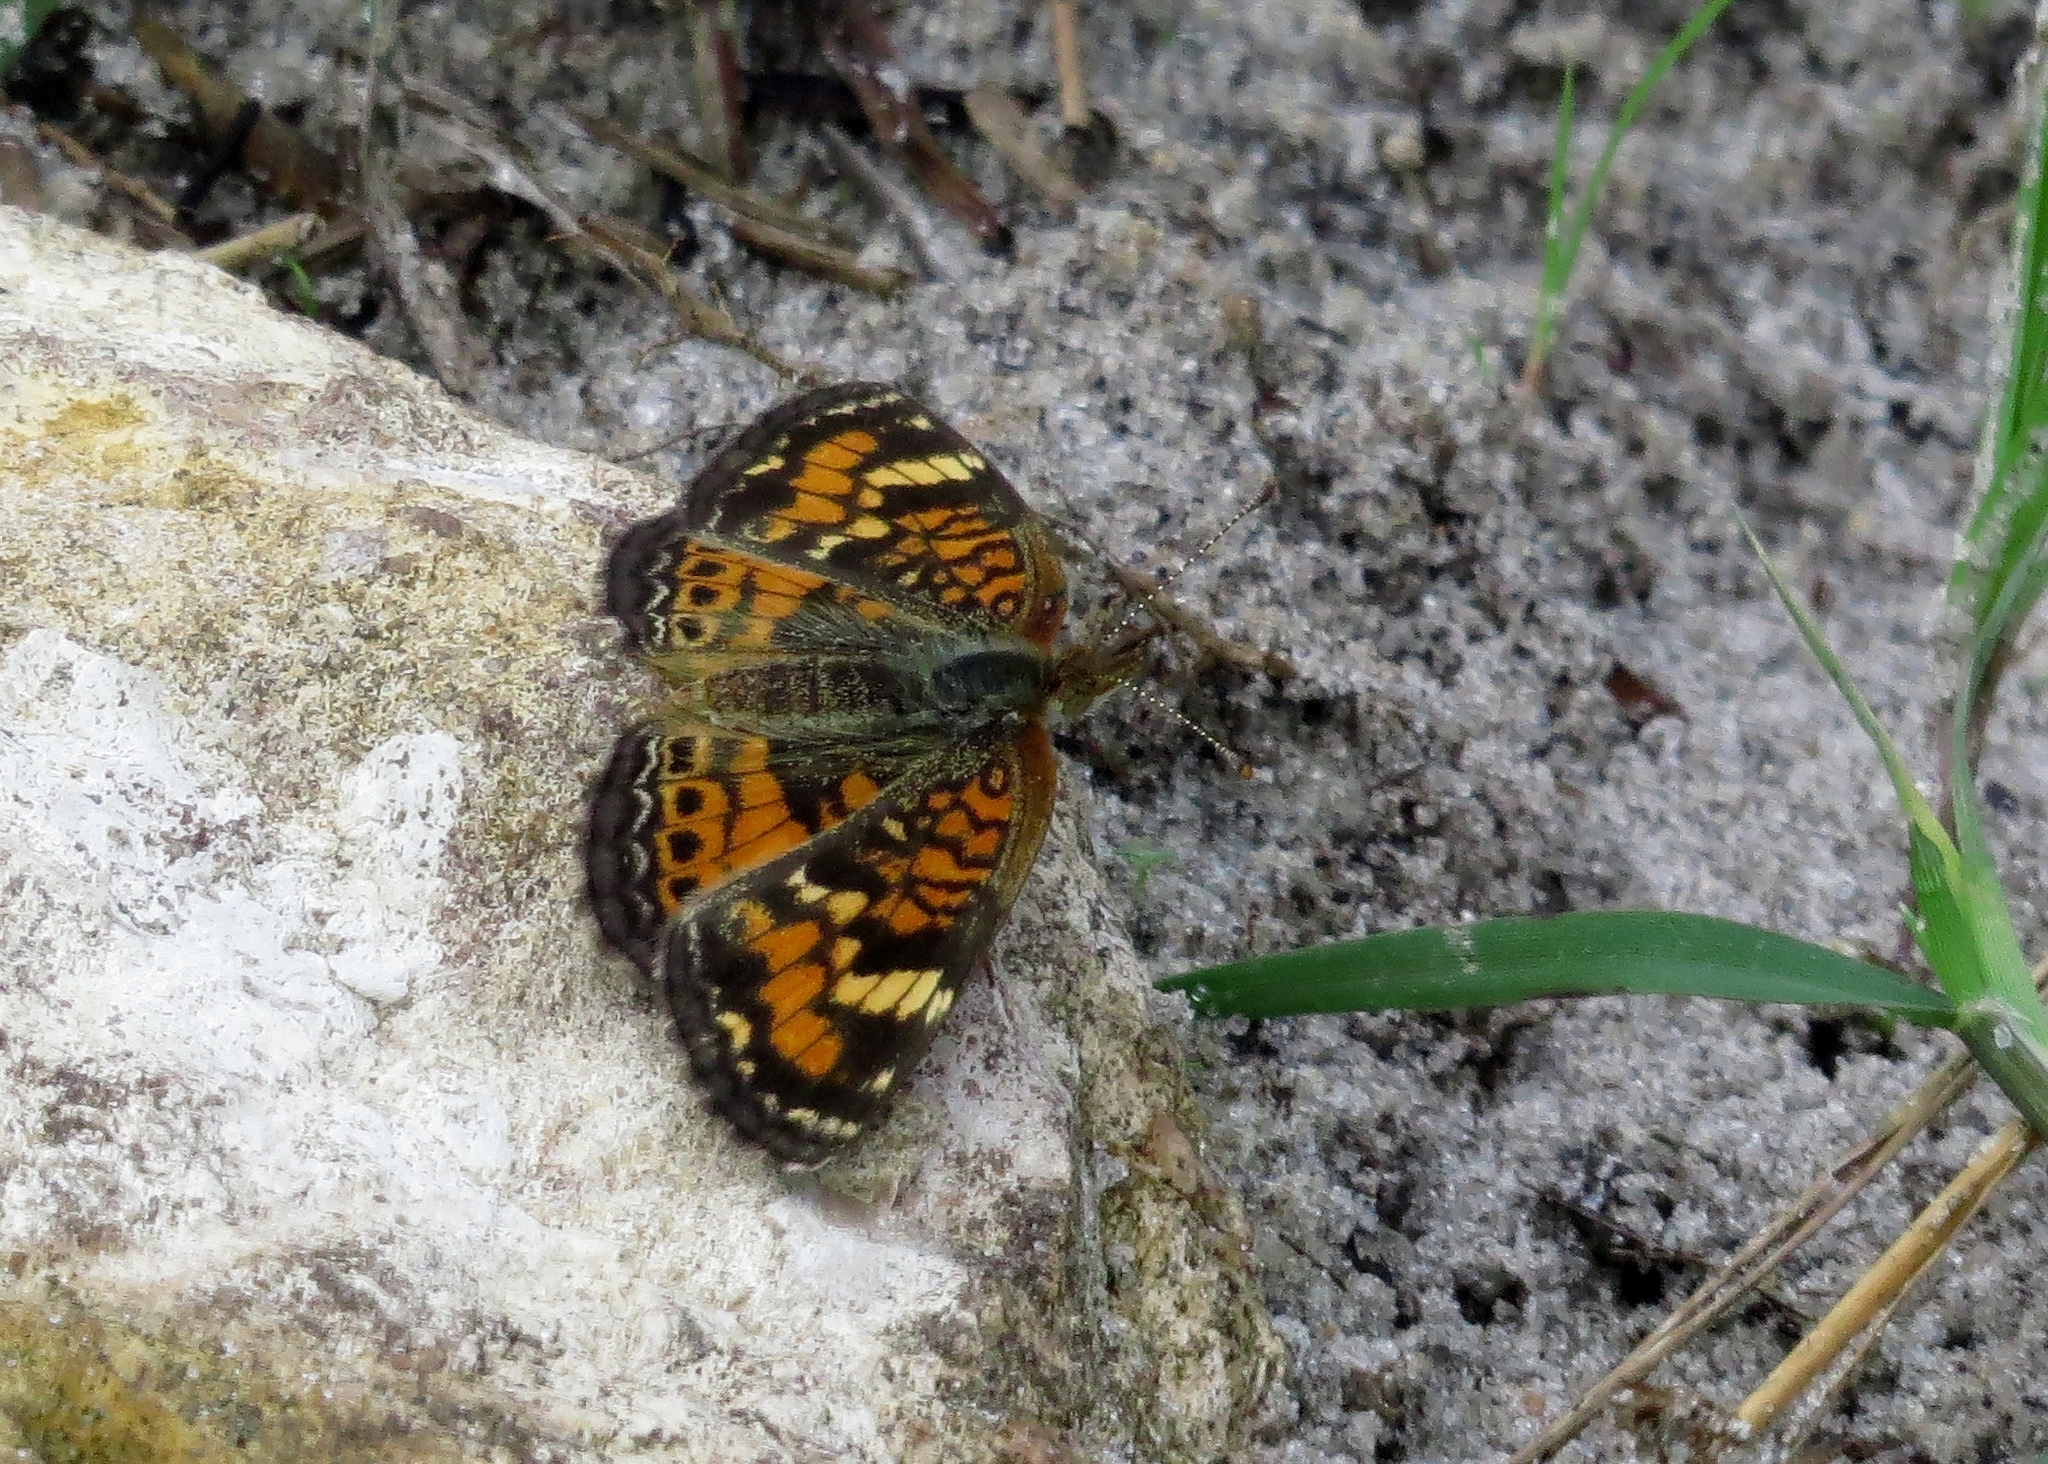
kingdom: Animalia
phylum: Arthropoda
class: Insecta
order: Lepidoptera
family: Nymphalidae
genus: Phyciodes
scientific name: Phyciodes phaon
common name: Phaon crescent
